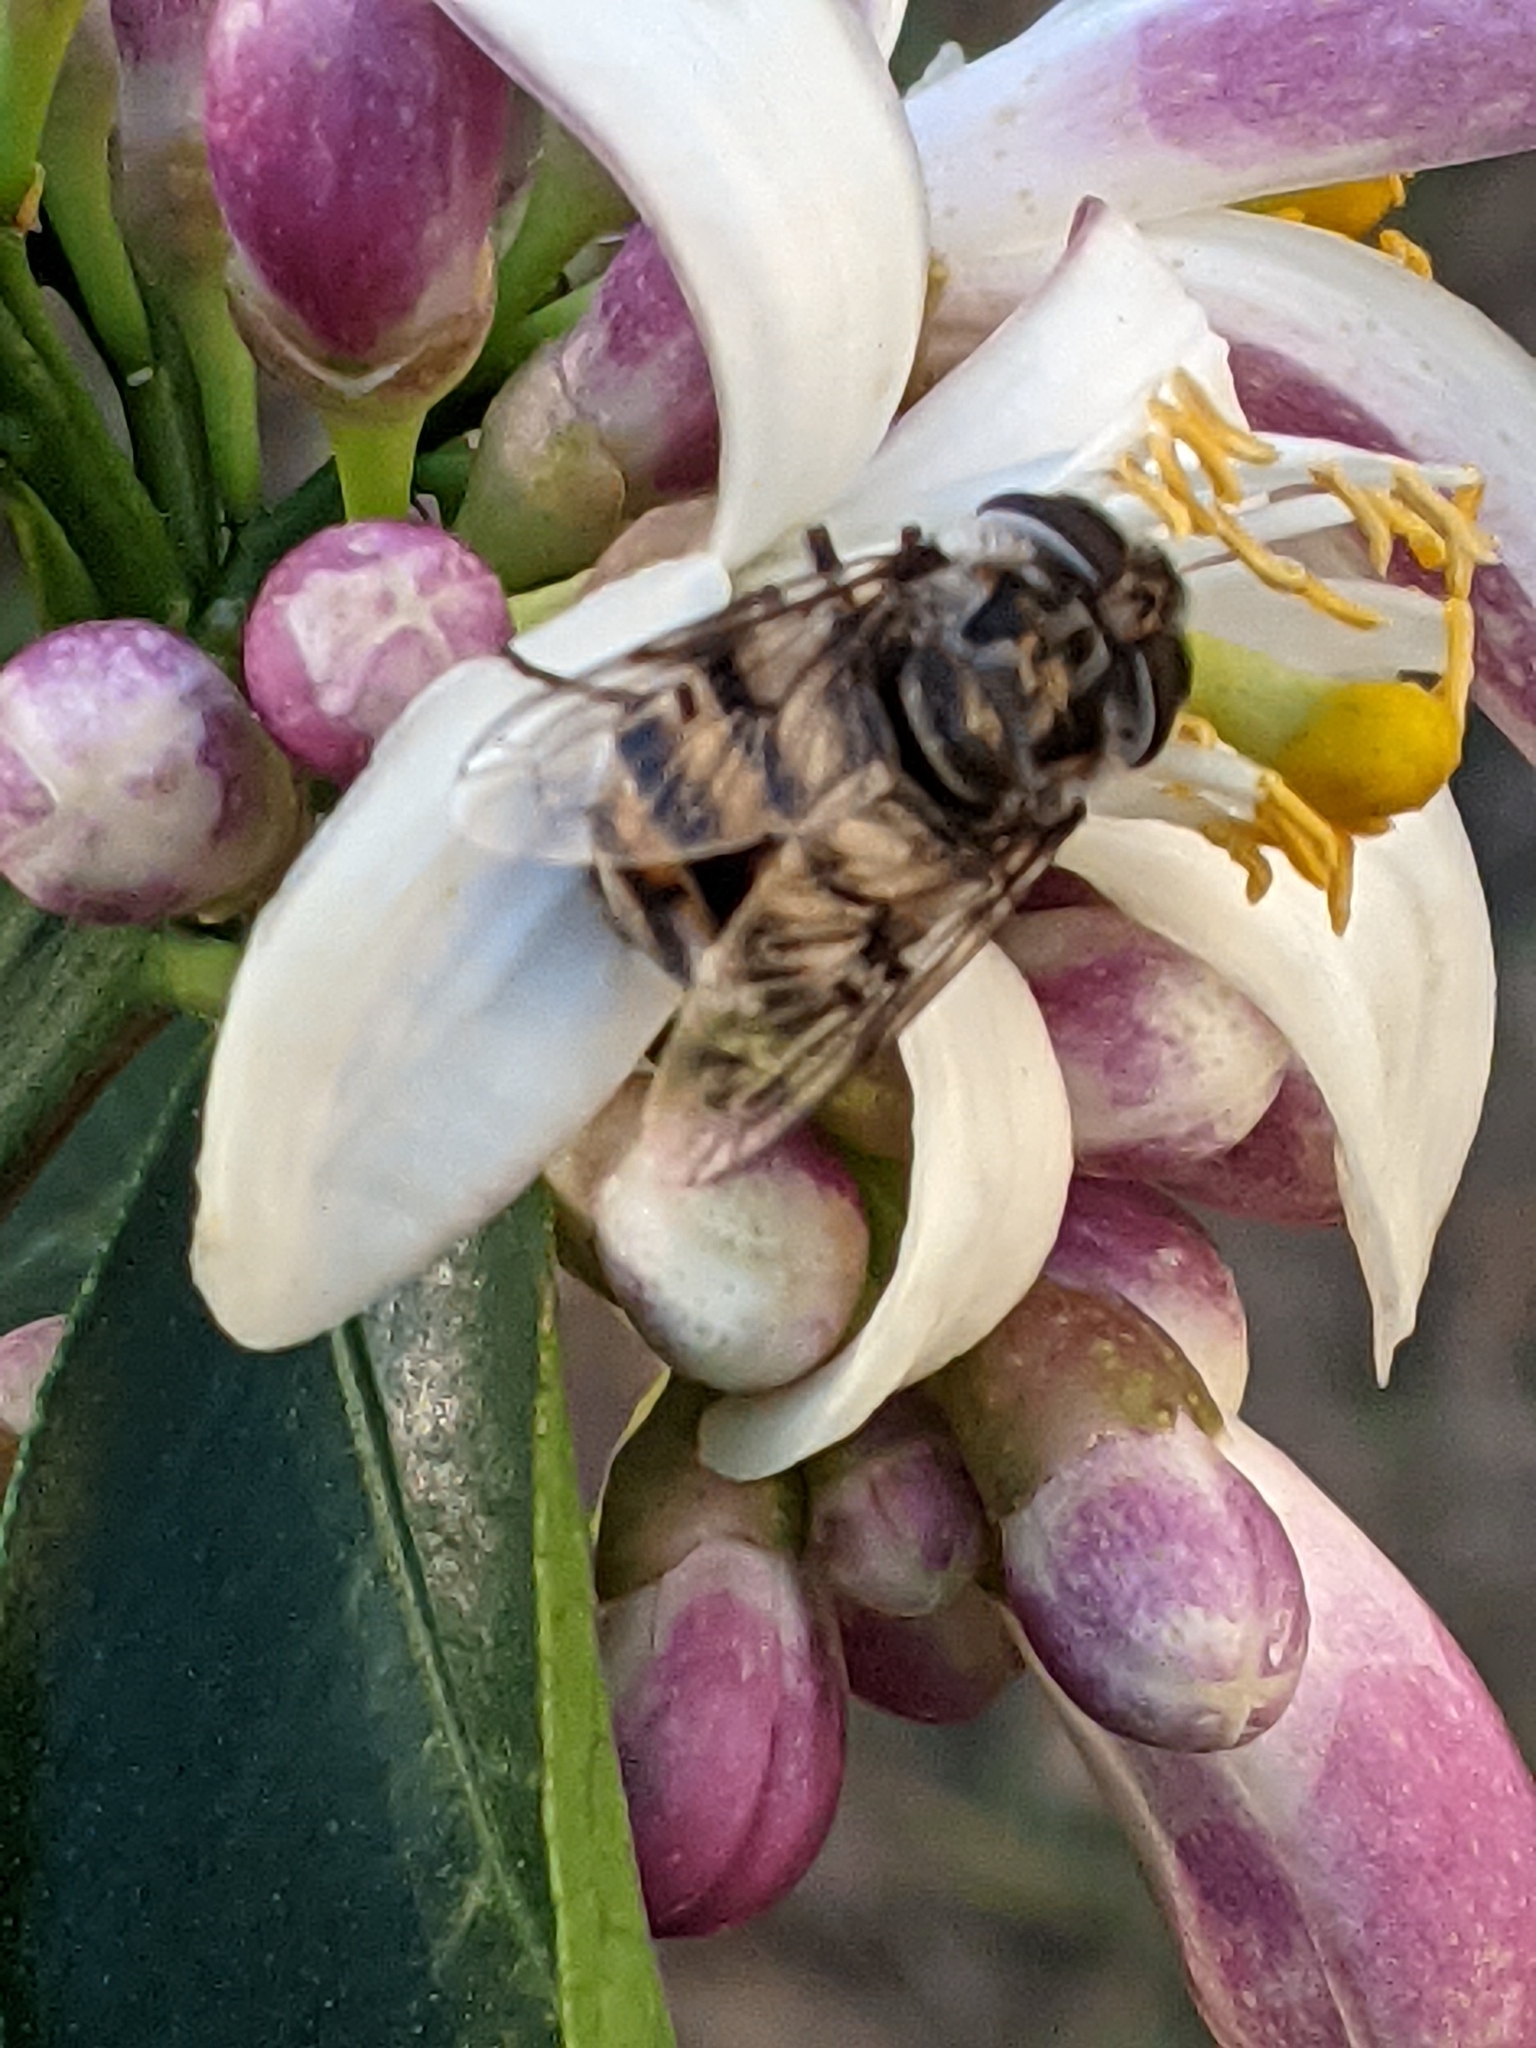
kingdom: Animalia
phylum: Arthropoda
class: Insecta
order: Diptera
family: Syrphidae
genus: Copestylum
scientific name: Copestylum avidum
